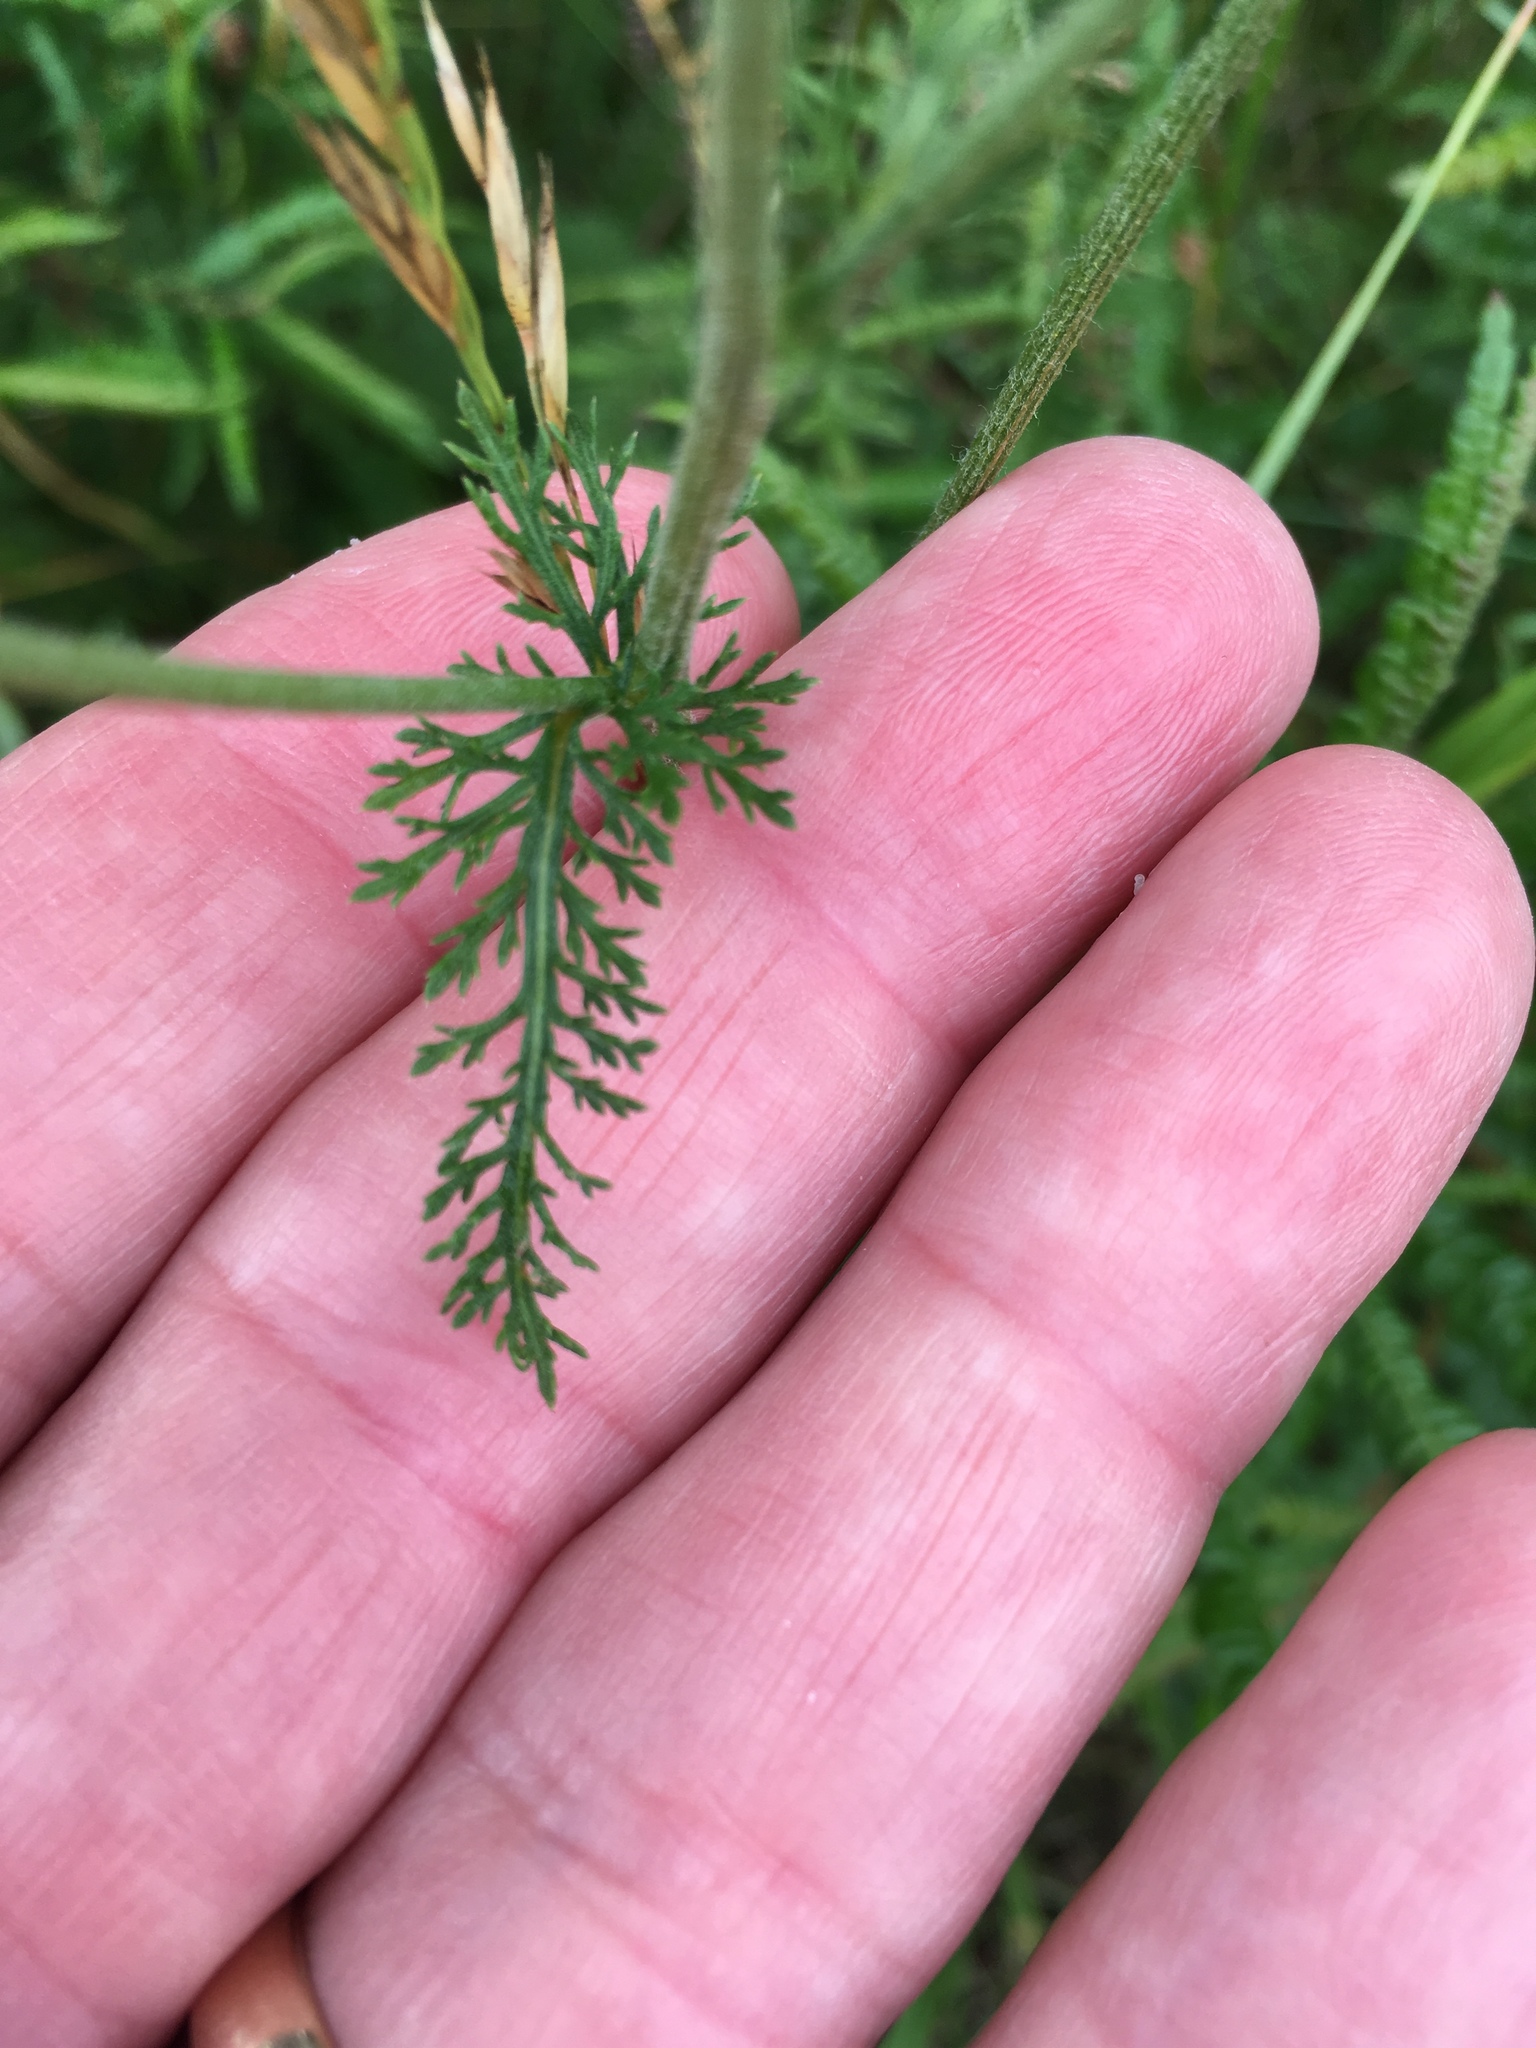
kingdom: Plantae
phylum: Tracheophyta
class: Magnoliopsida
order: Asterales
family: Asteraceae
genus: Achillea
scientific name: Achillea millefolium
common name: Yarrow
